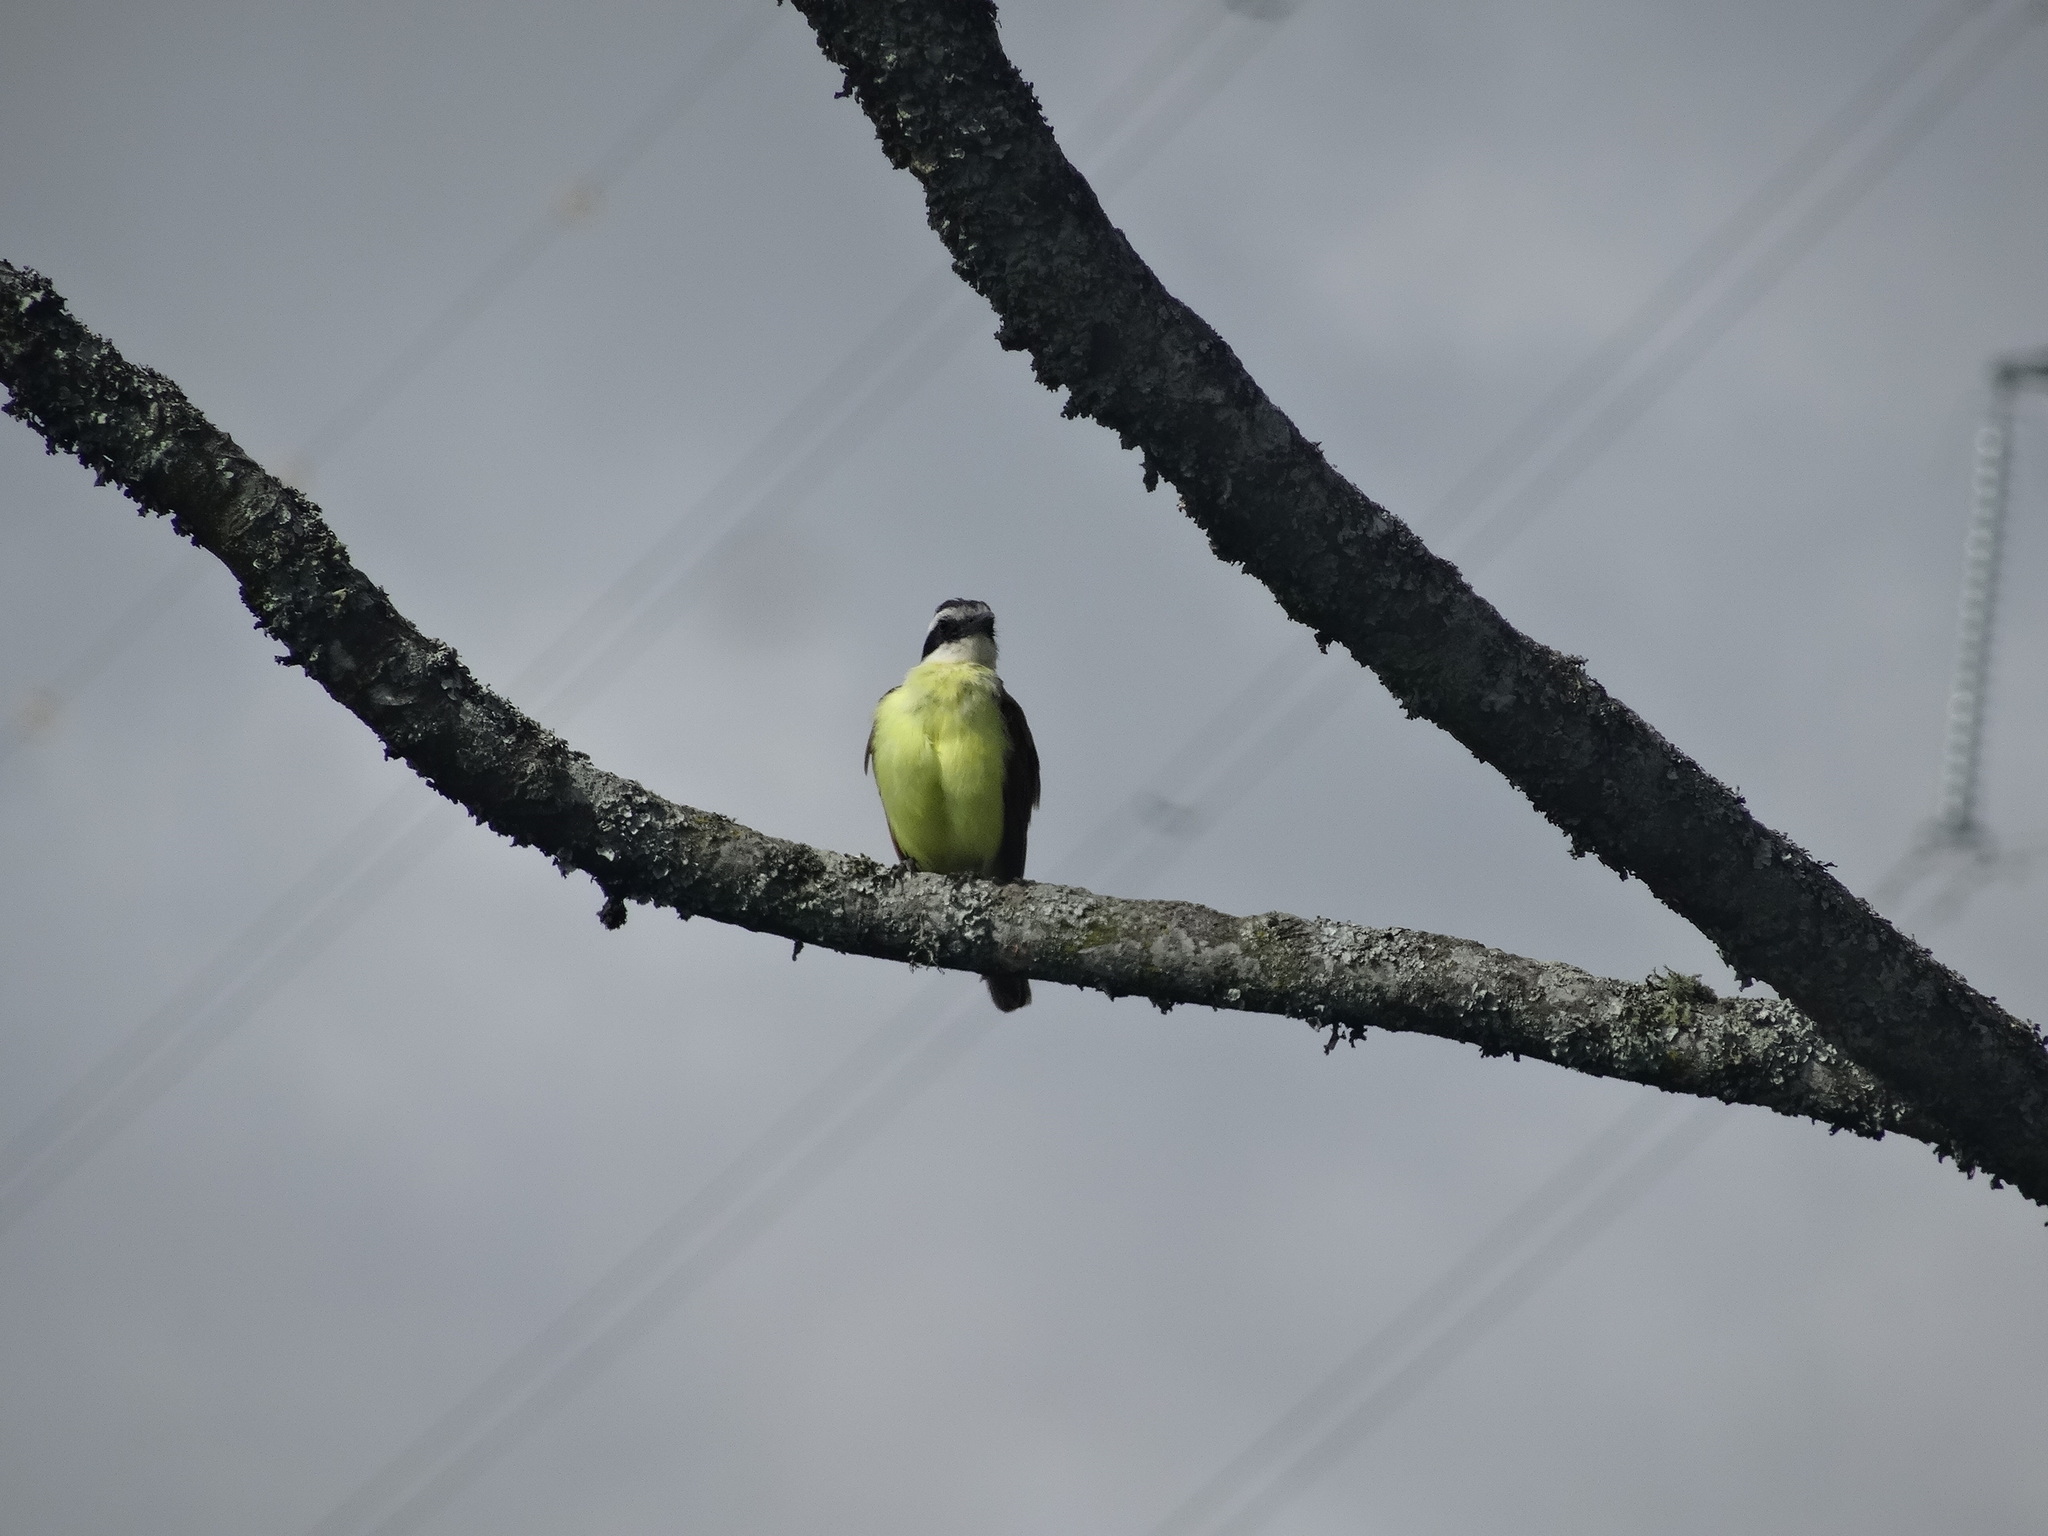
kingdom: Animalia
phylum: Chordata
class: Aves
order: Passeriformes
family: Tyrannidae
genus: Pitangus
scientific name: Pitangus sulphuratus
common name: Great kiskadee
